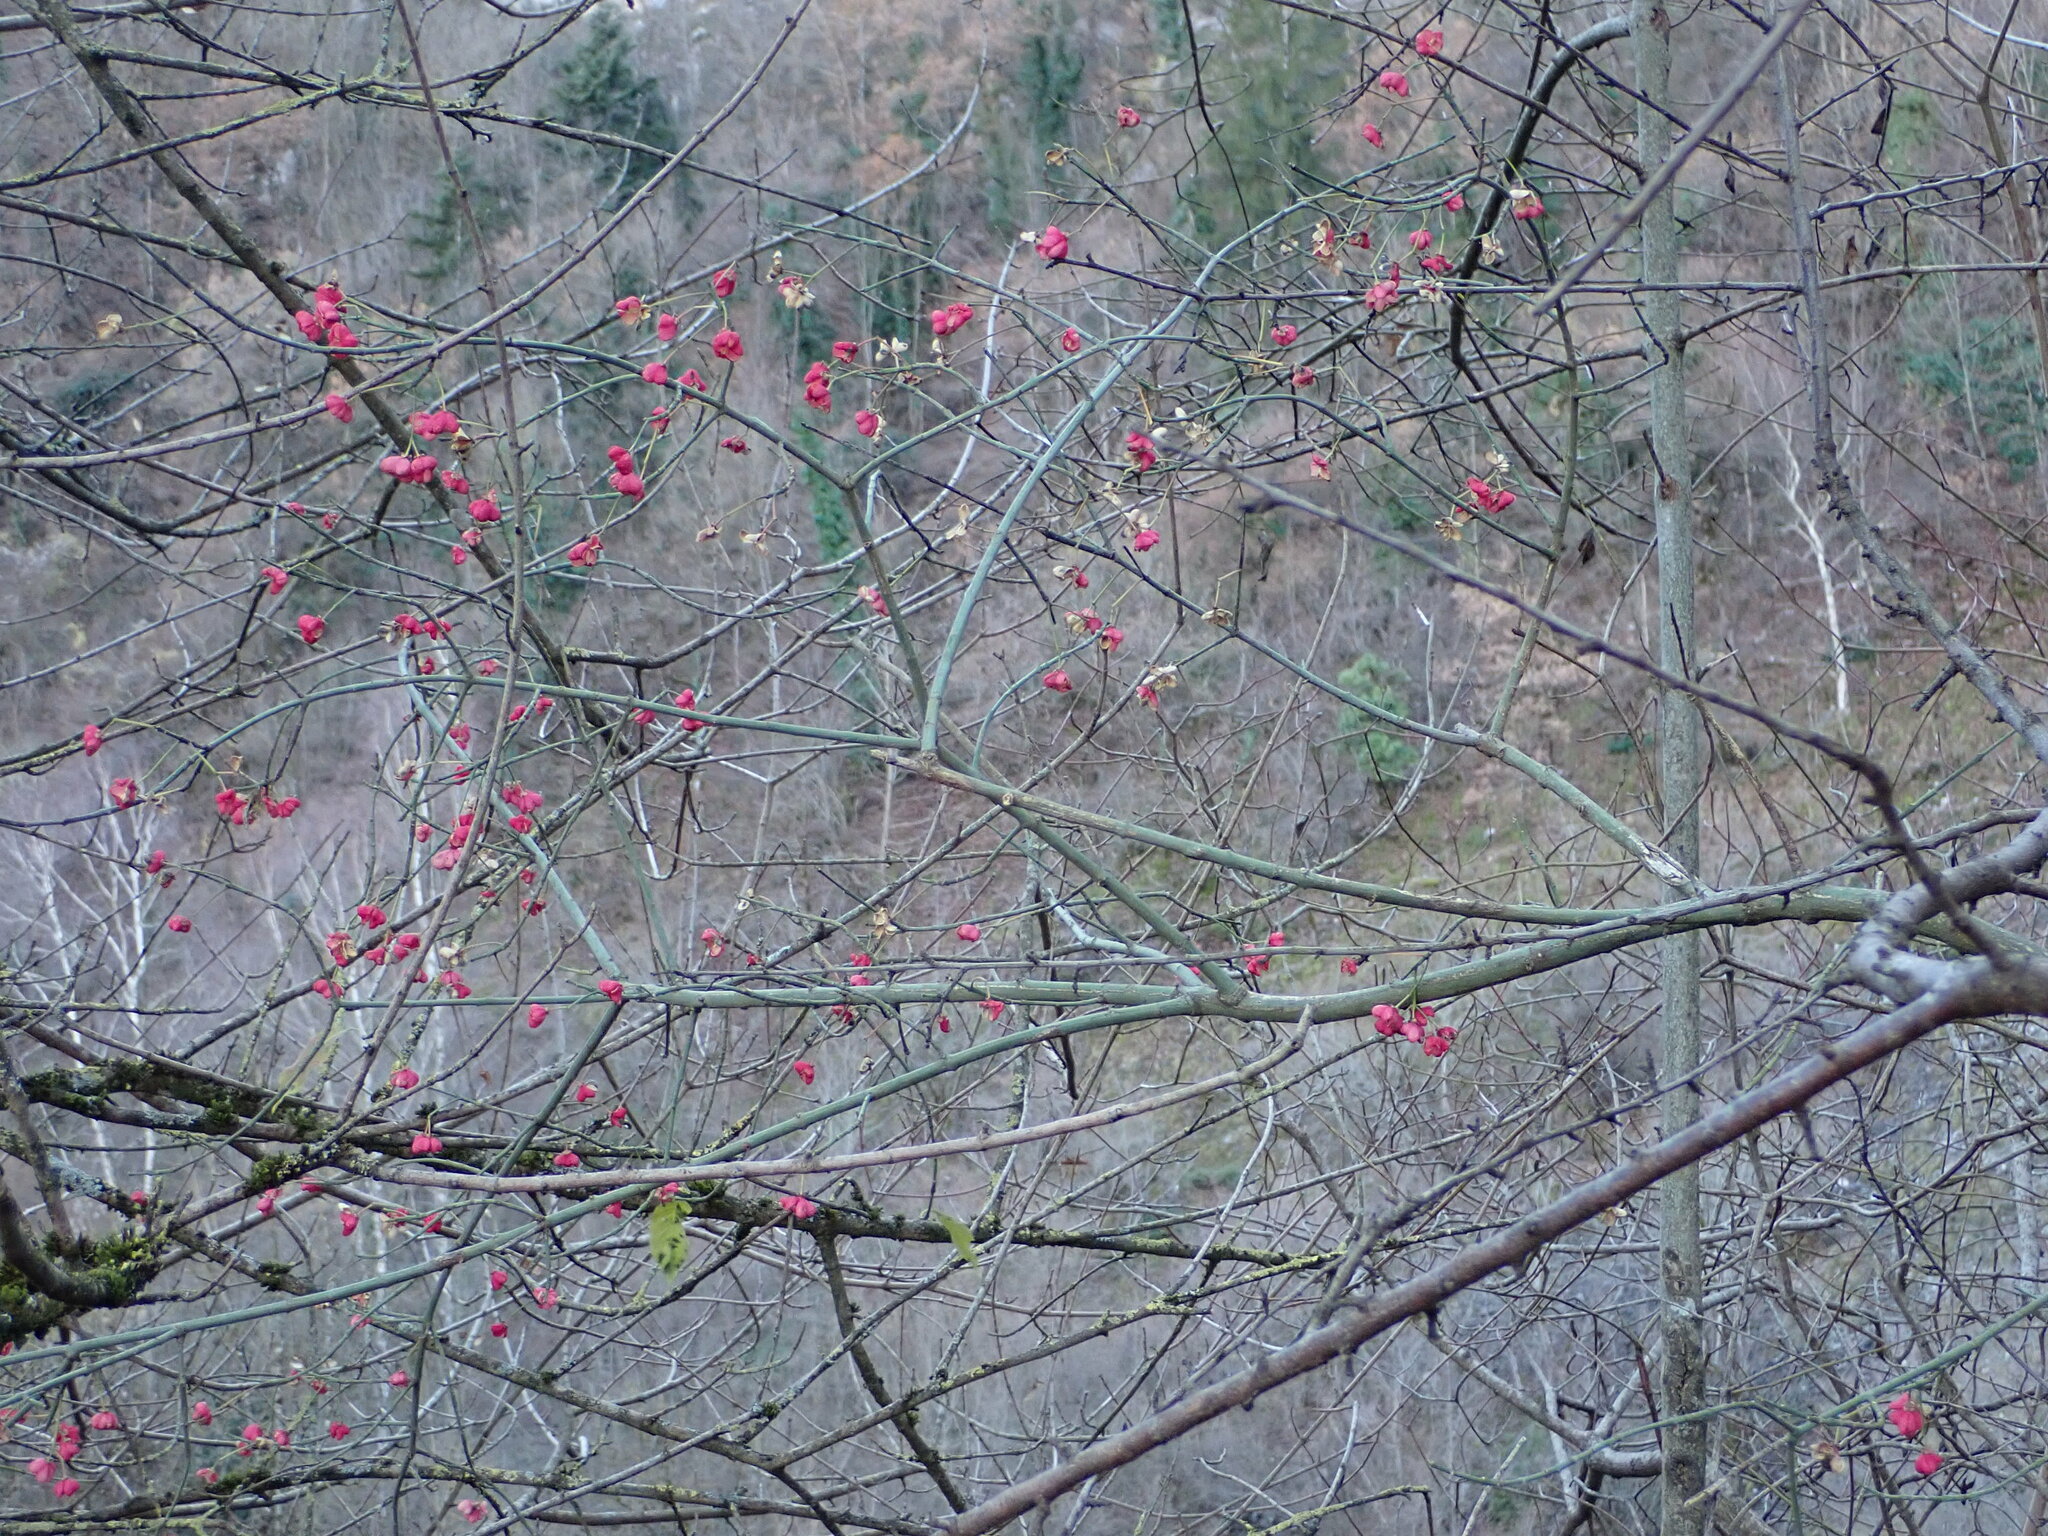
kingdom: Plantae
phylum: Tracheophyta
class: Magnoliopsida
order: Celastrales
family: Celastraceae
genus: Euonymus
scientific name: Euonymus europaeus
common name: Spindle
